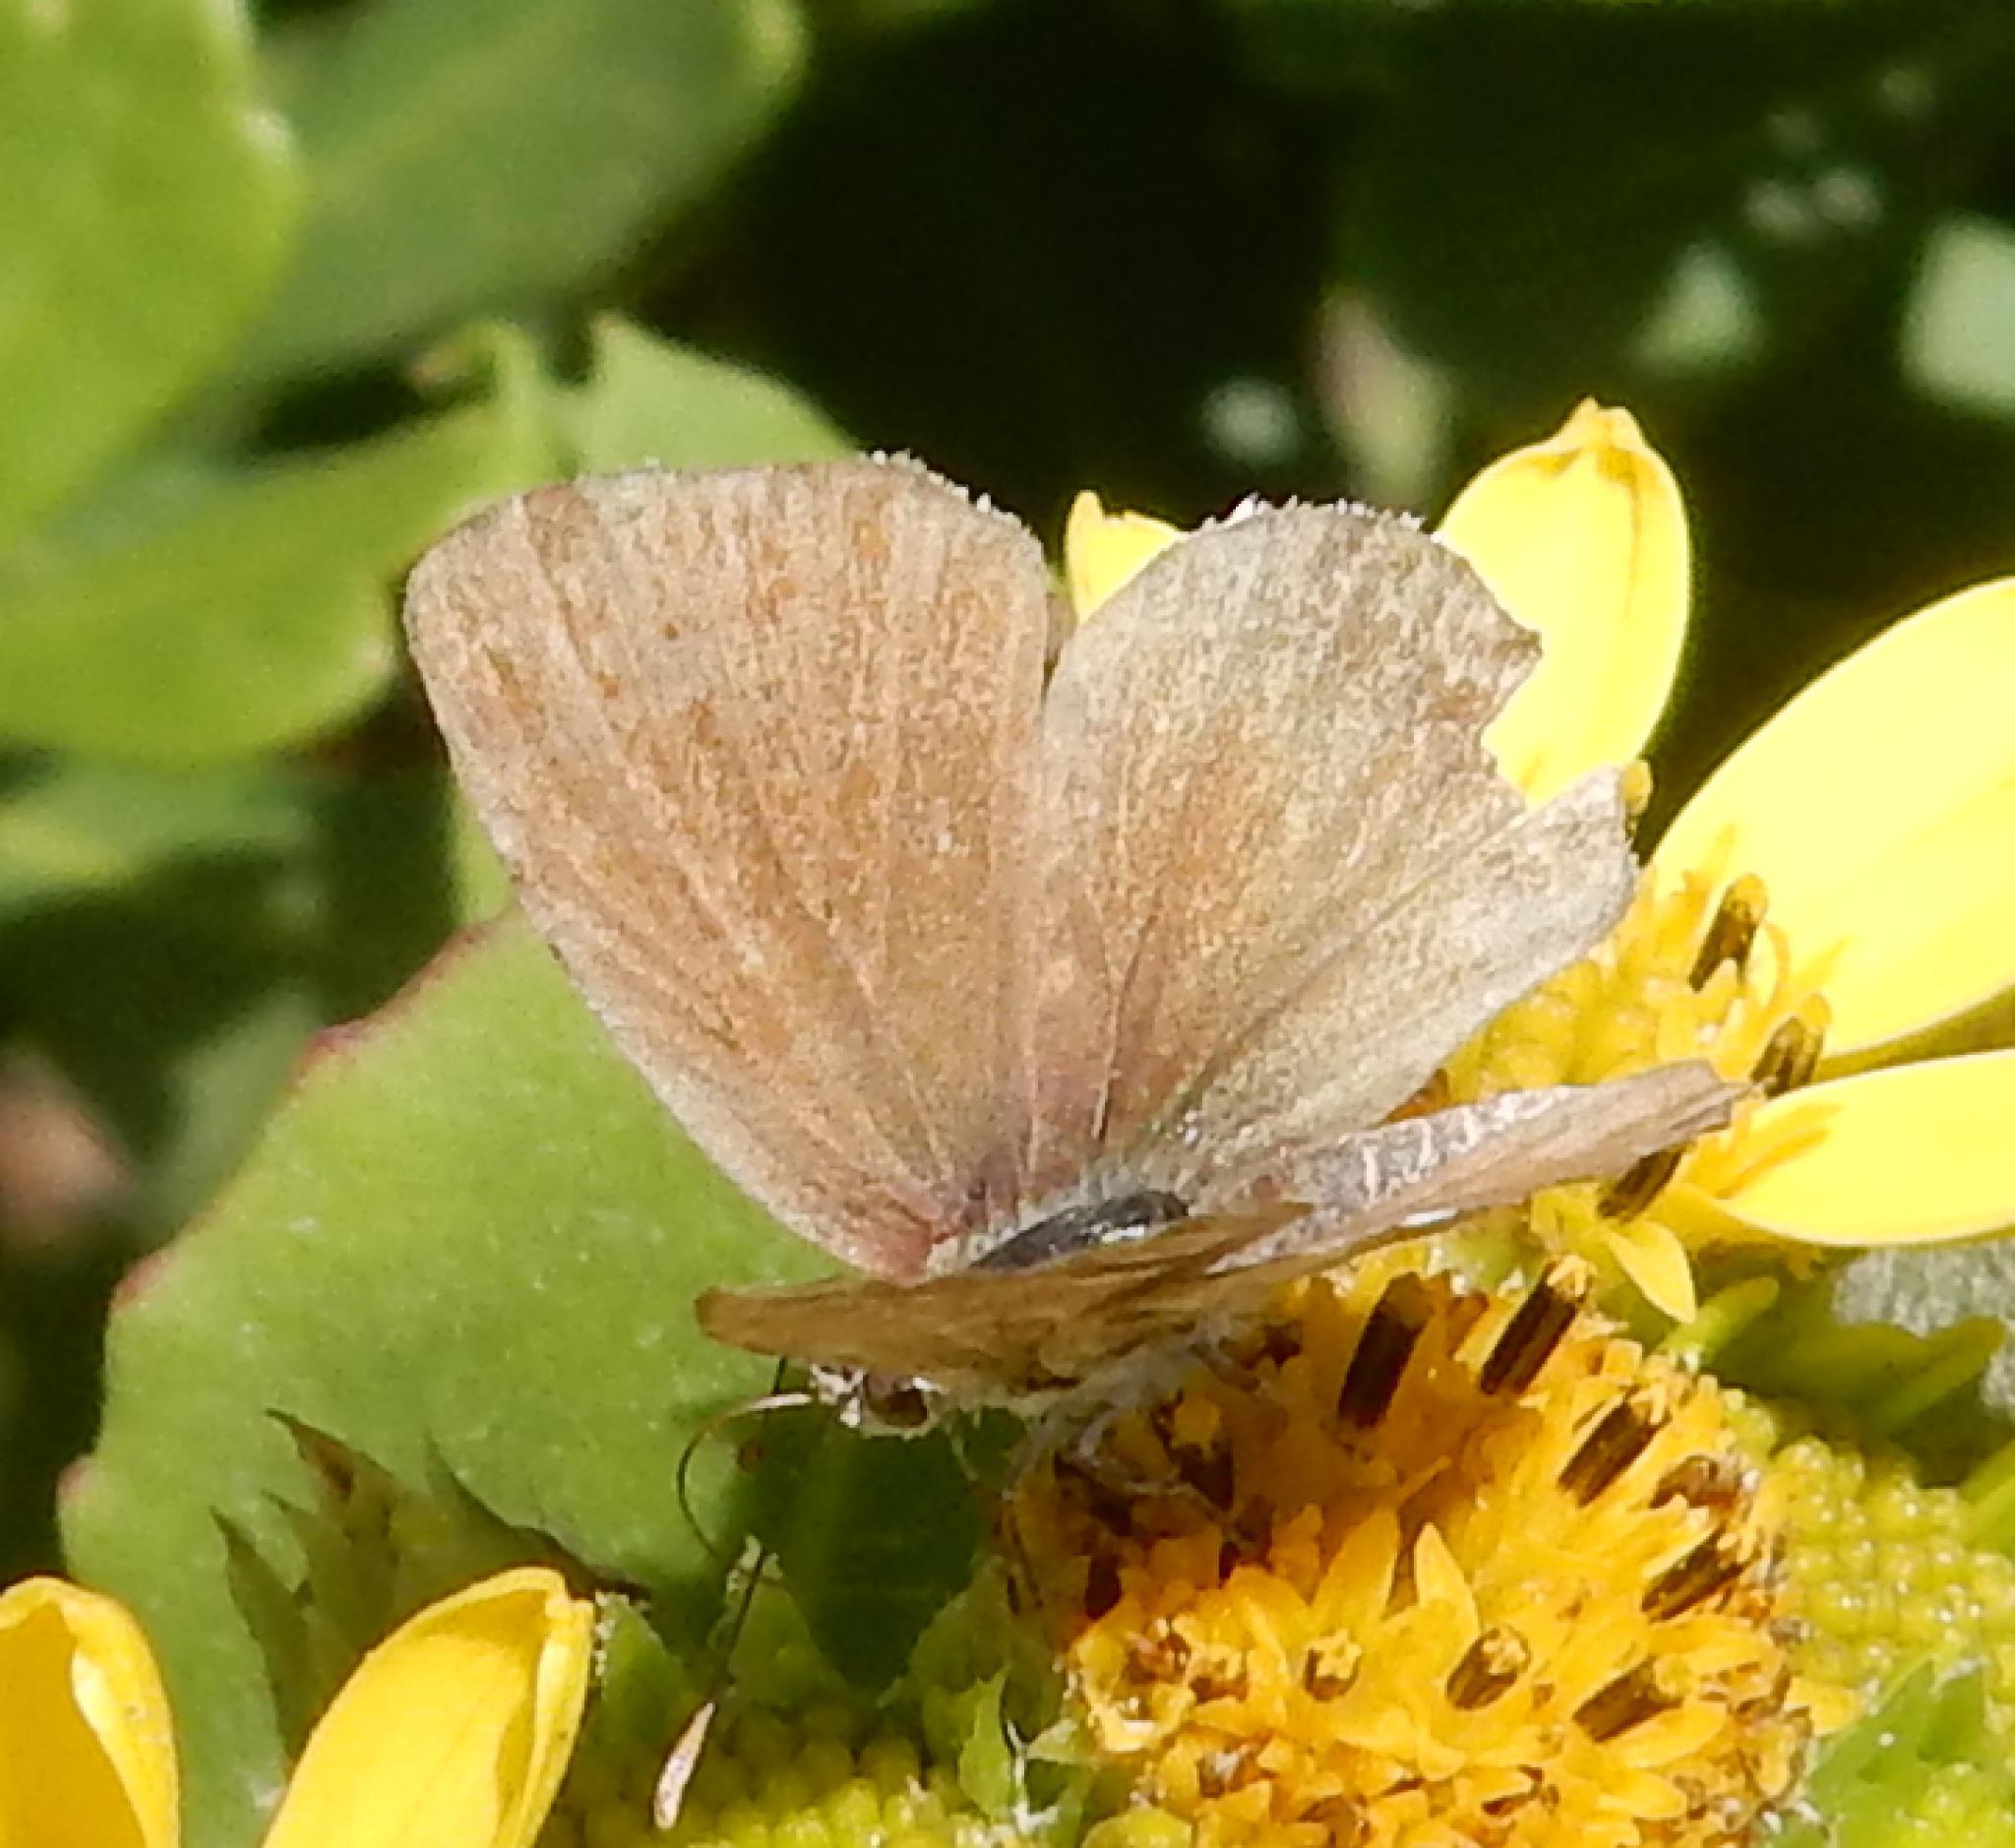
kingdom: Animalia
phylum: Arthropoda
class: Insecta
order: Lepidoptera
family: Lycaenidae
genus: Cacyreus
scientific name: Cacyreus marshalli
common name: Geranium bronze
